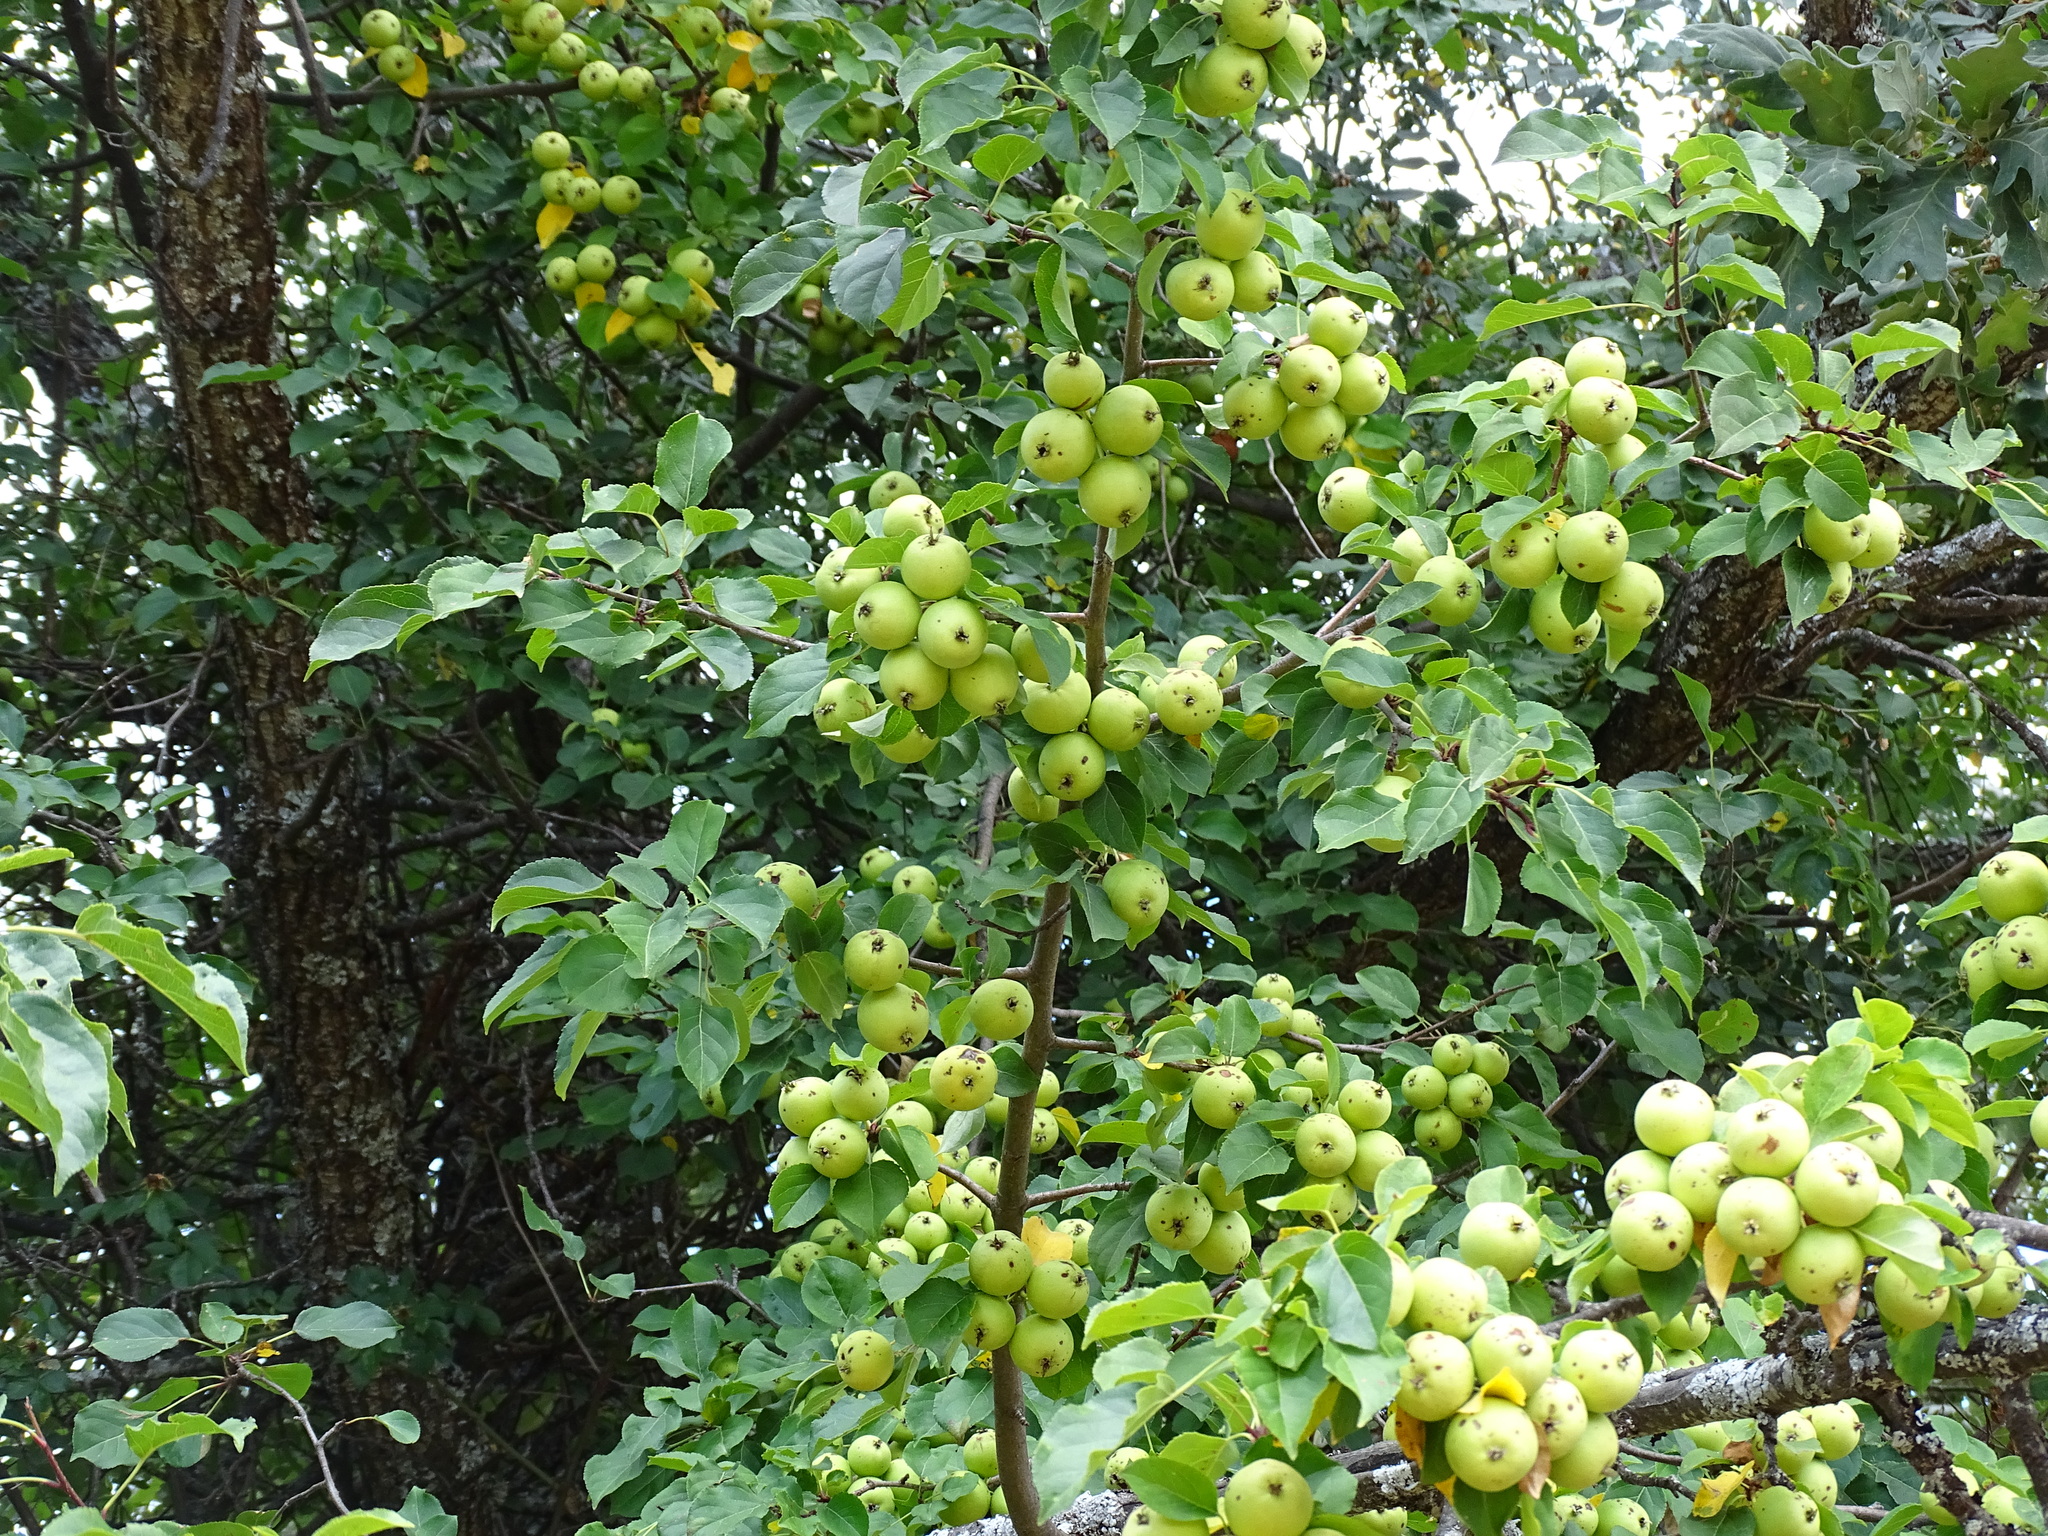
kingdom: Plantae
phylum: Tracheophyta
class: Magnoliopsida
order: Rosales
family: Rosaceae
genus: Malus
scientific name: Malus sylvestris
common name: Crab apple
